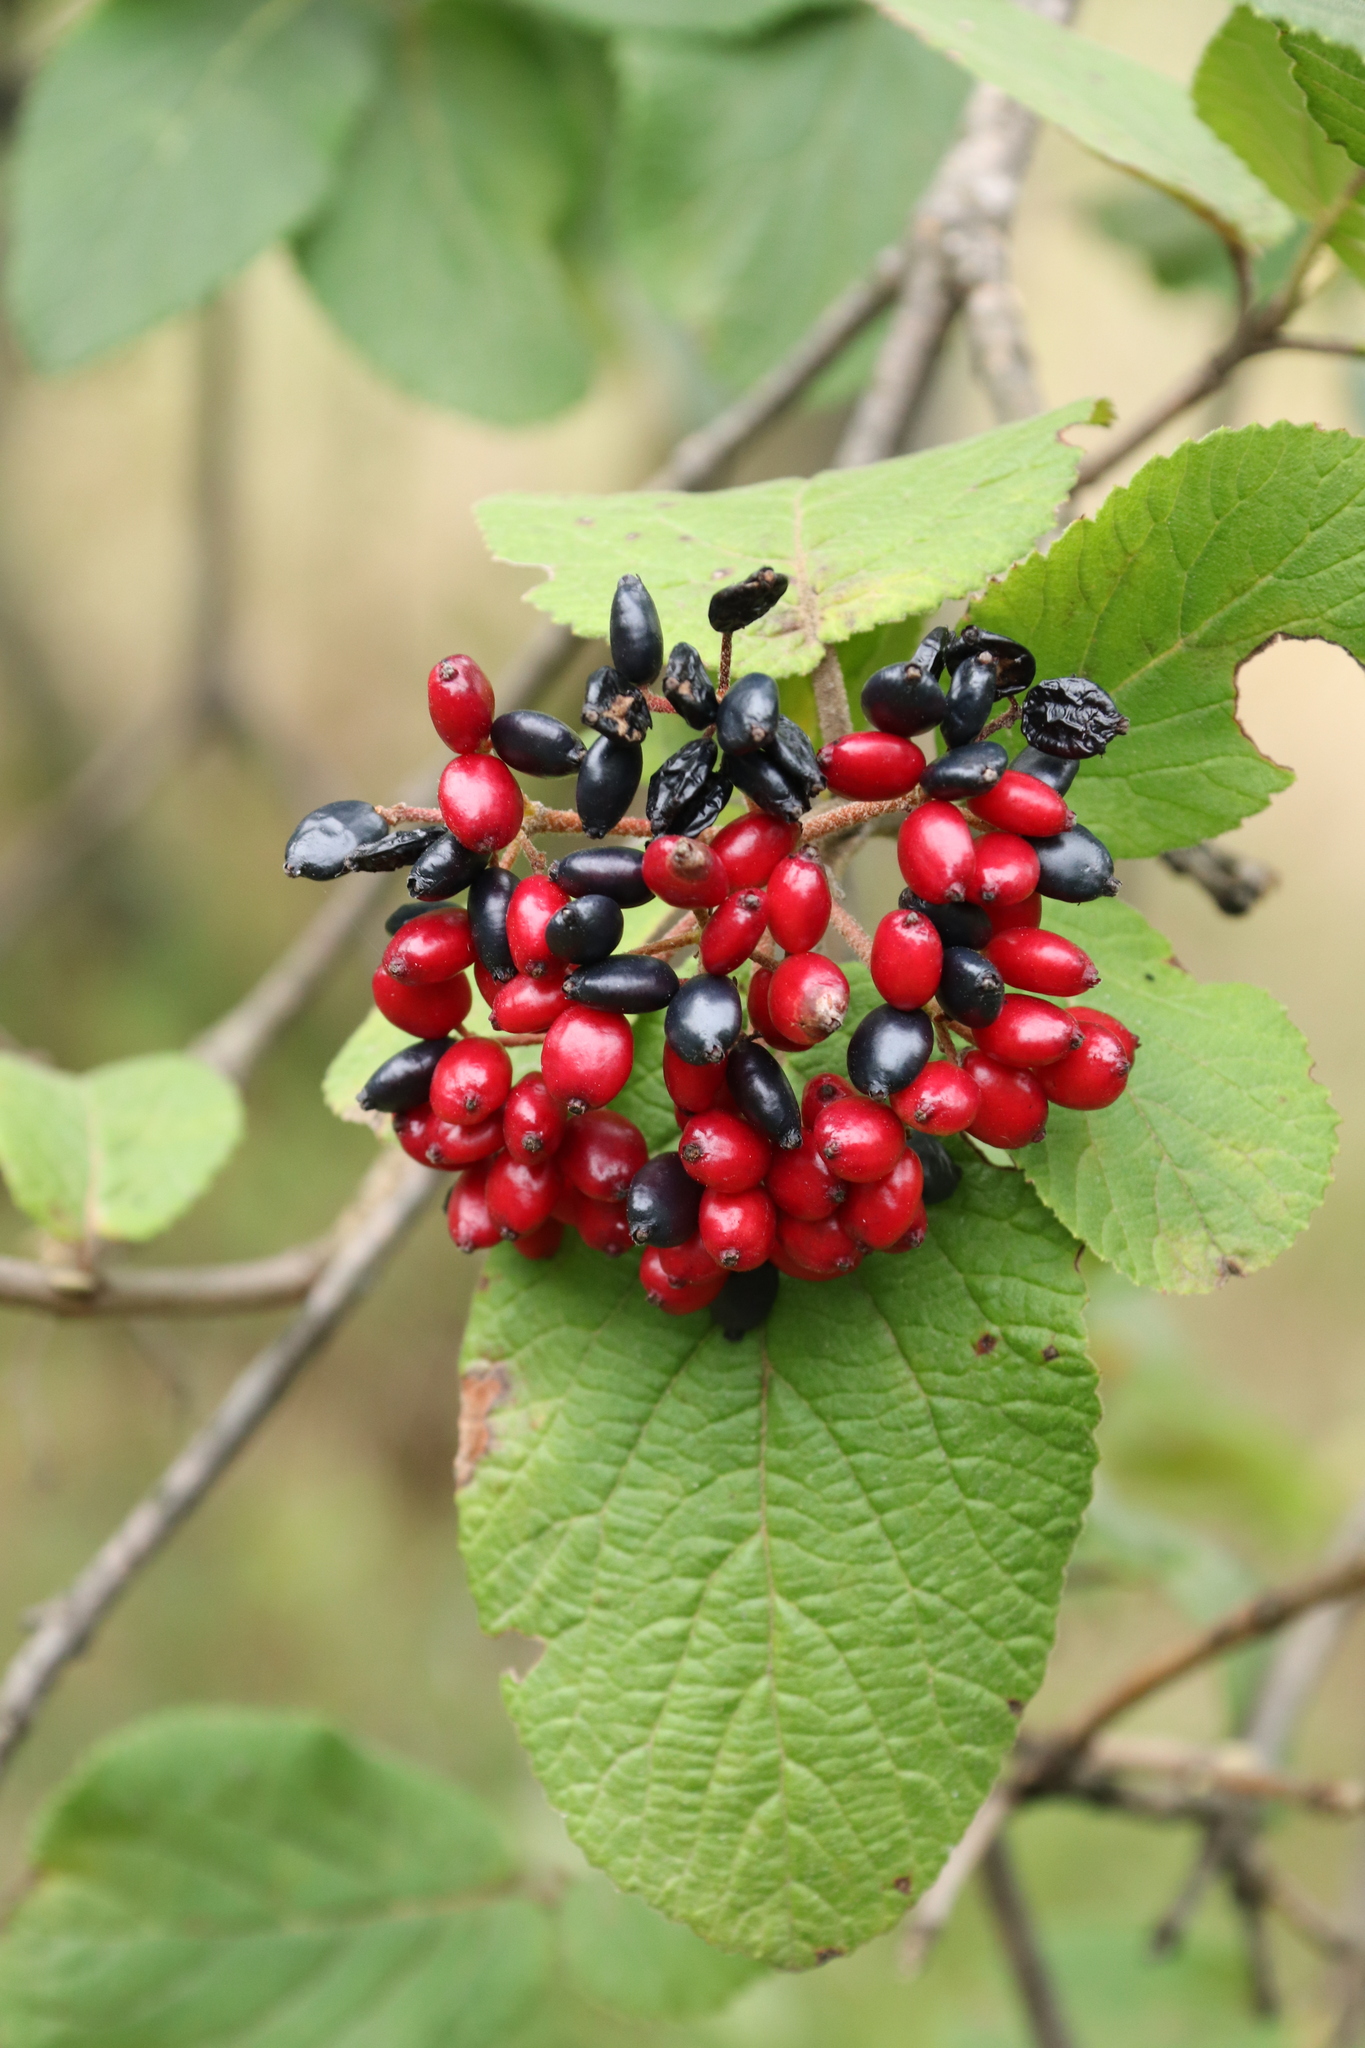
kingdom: Plantae
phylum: Tracheophyta
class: Magnoliopsida
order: Dipsacales
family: Viburnaceae
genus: Viburnum
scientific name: Viburnum lantana
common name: Wayfaring tree
